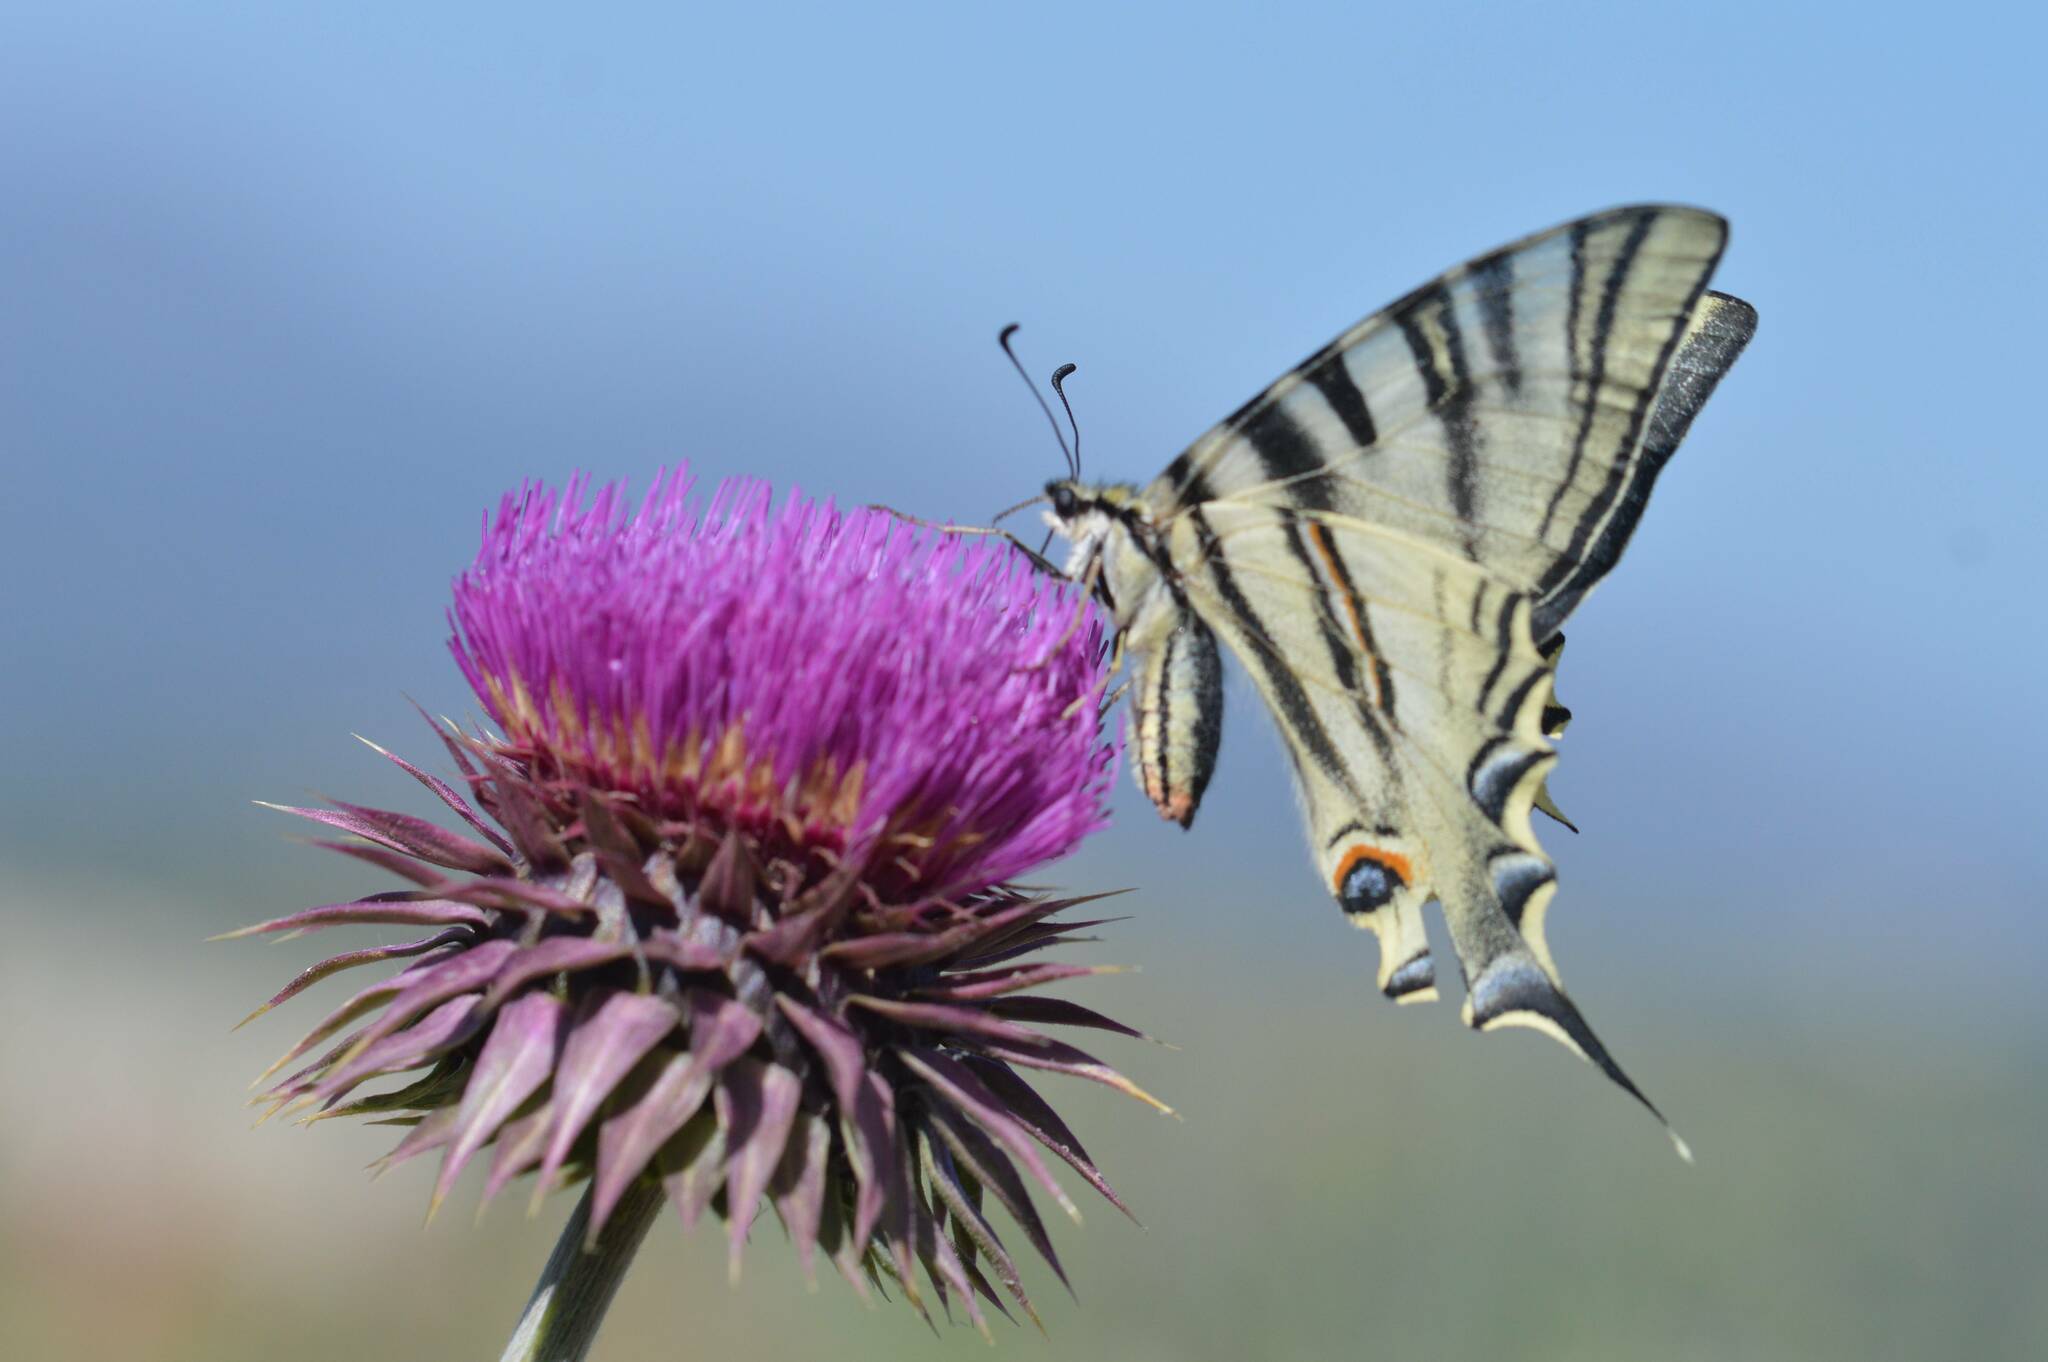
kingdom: Animalia
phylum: Arthropoda
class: Insecta
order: Lepidoptera
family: Papilionidae
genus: Iphiclides
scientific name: Iphiclides feisthamelii
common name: Iberian scarce swallowtail
